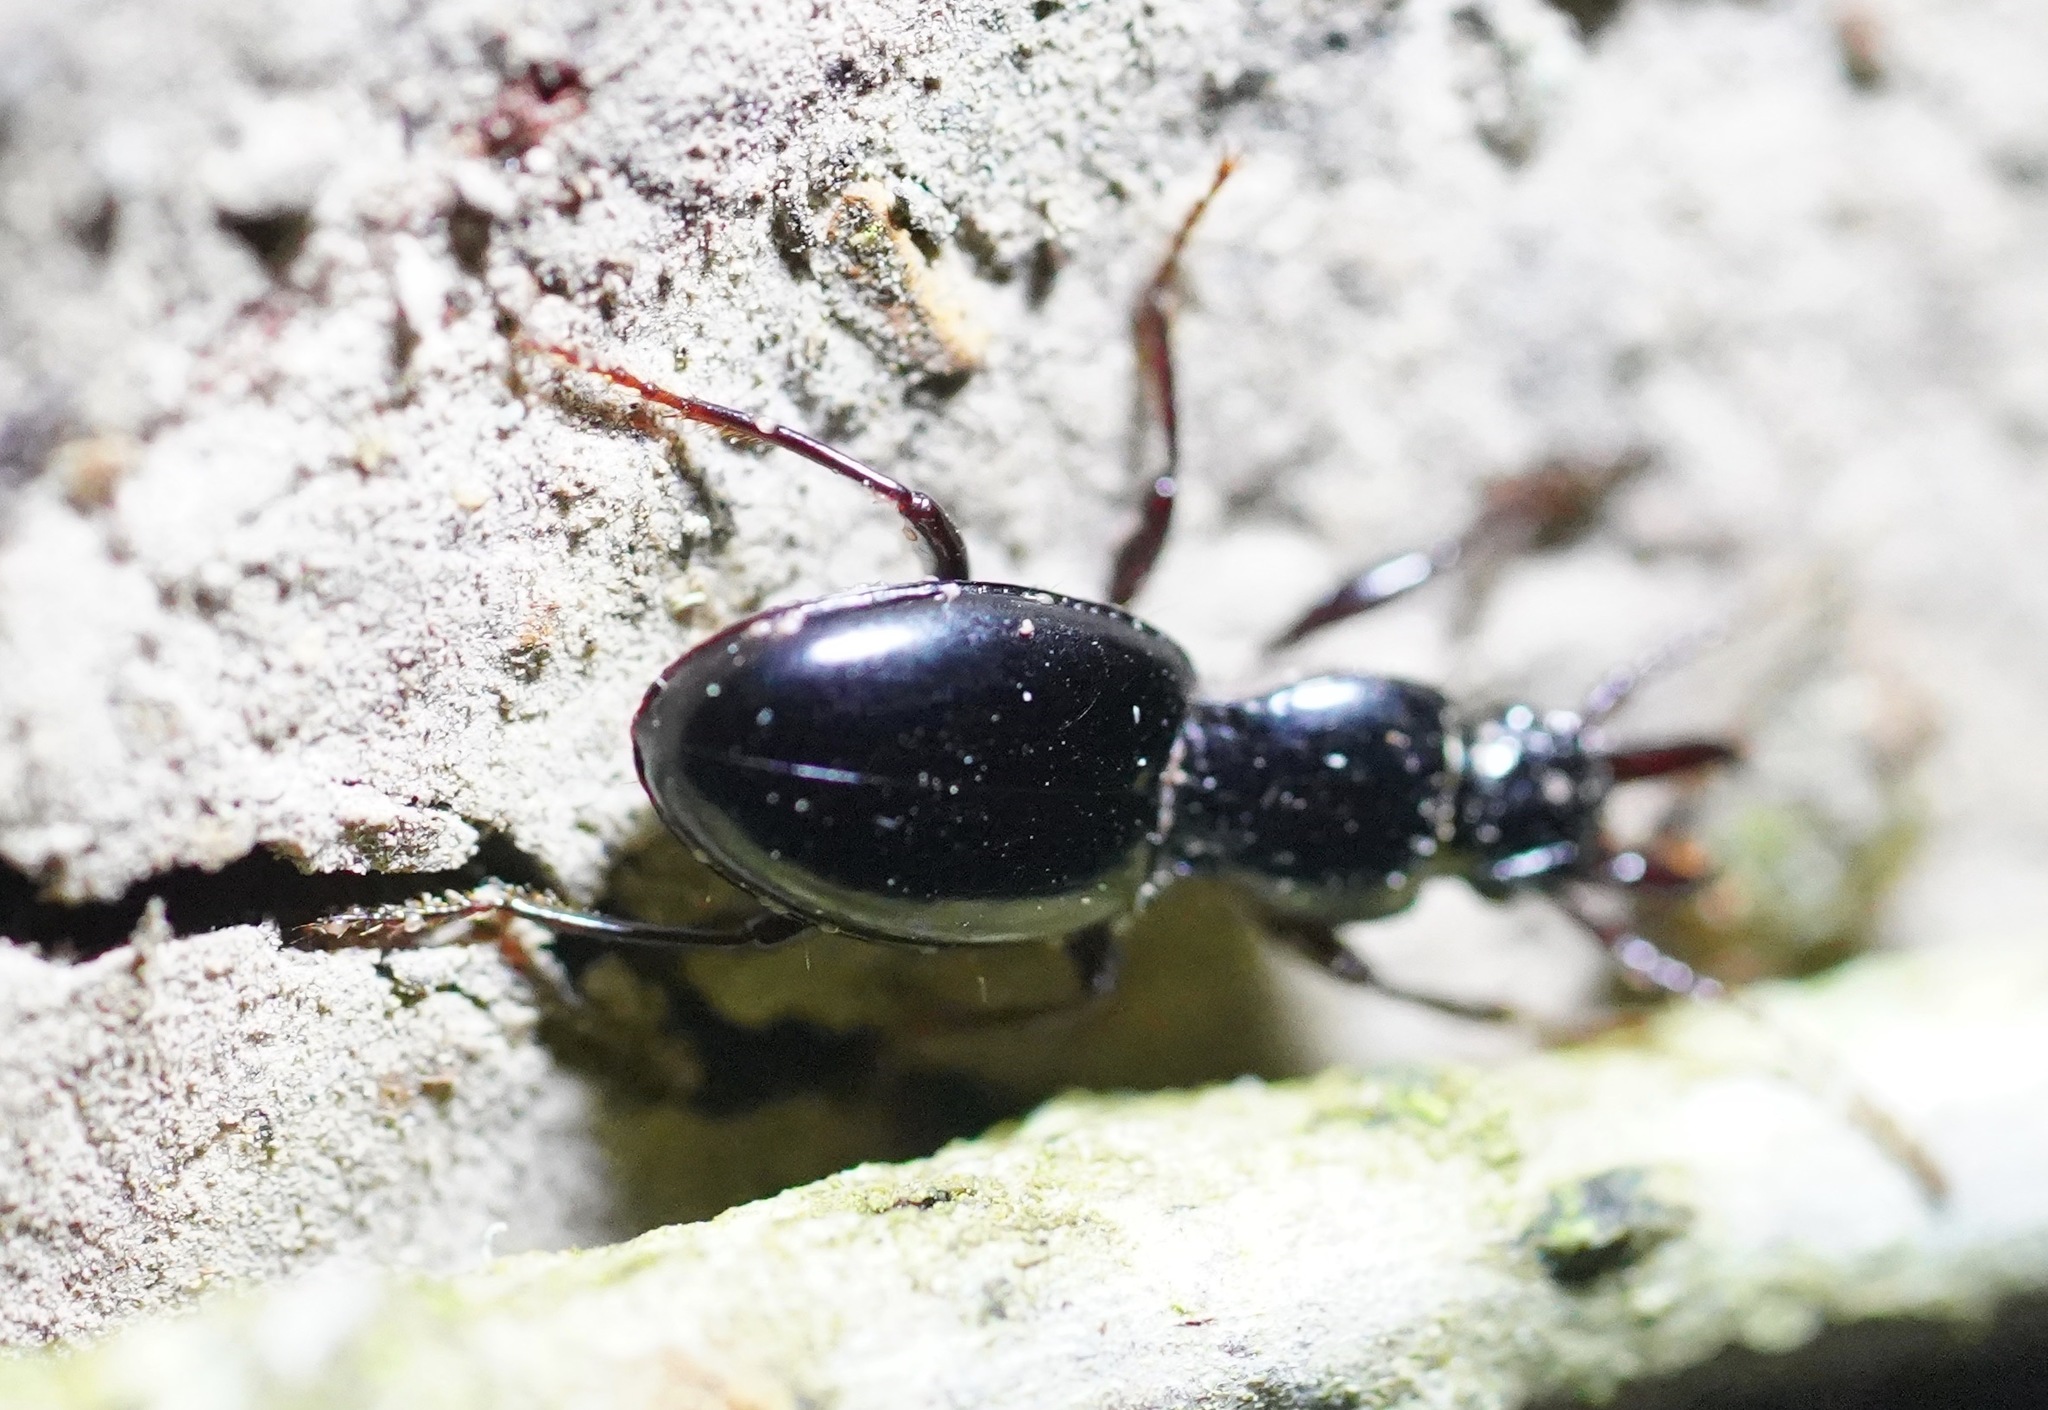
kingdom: Animalia
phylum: Arthropoda
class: Insecta
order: Coleoptera
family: Carabidae
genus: Promecognathus
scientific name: Promecognathus laevissimus
